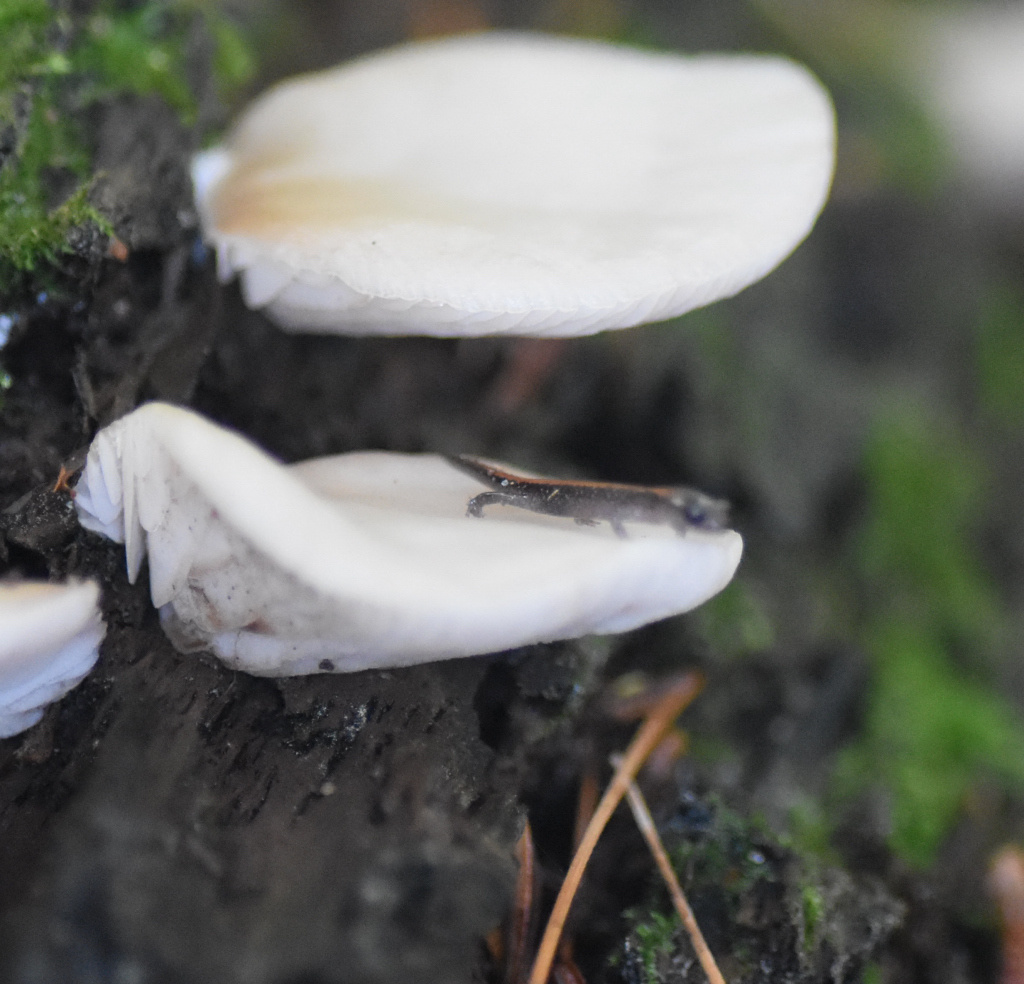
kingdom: Animalia
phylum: Chordata
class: Amphibia
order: Caudata
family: Plethodontidae
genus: Plethodon
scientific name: Plethodon cinereus
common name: Redback salamander
